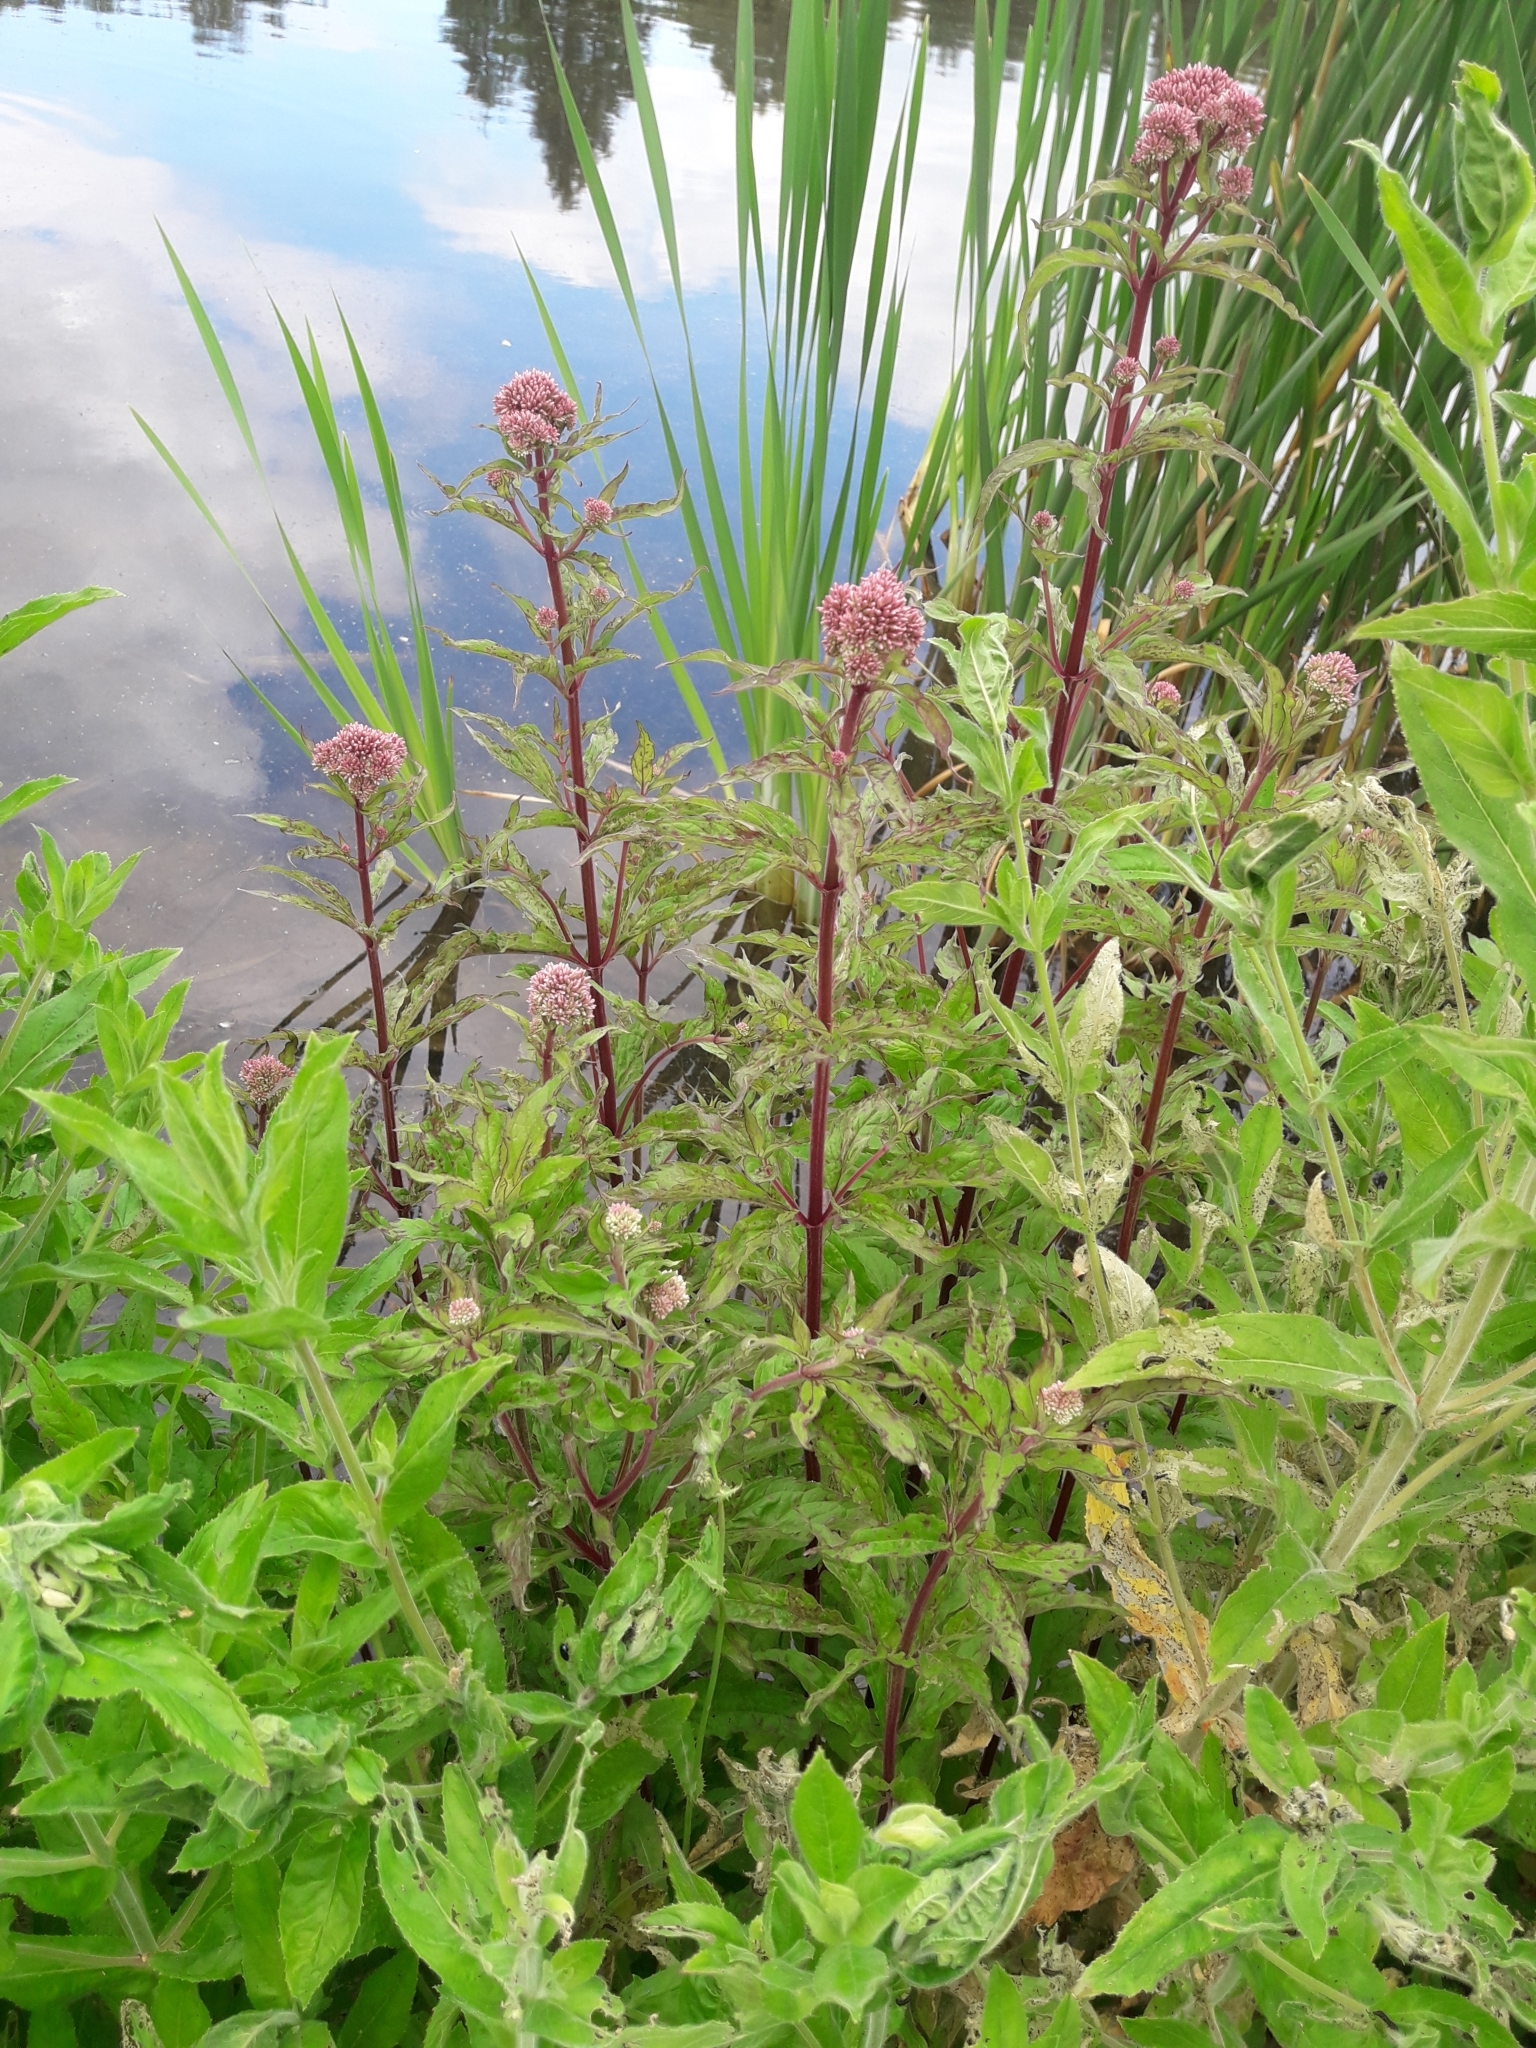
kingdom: Plantae
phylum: Tracheophyta
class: Magnoliopsida
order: Asterales
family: Asteraceae
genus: Eupatorium
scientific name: Eupatorium cannabinum
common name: Hemp-agrimony
